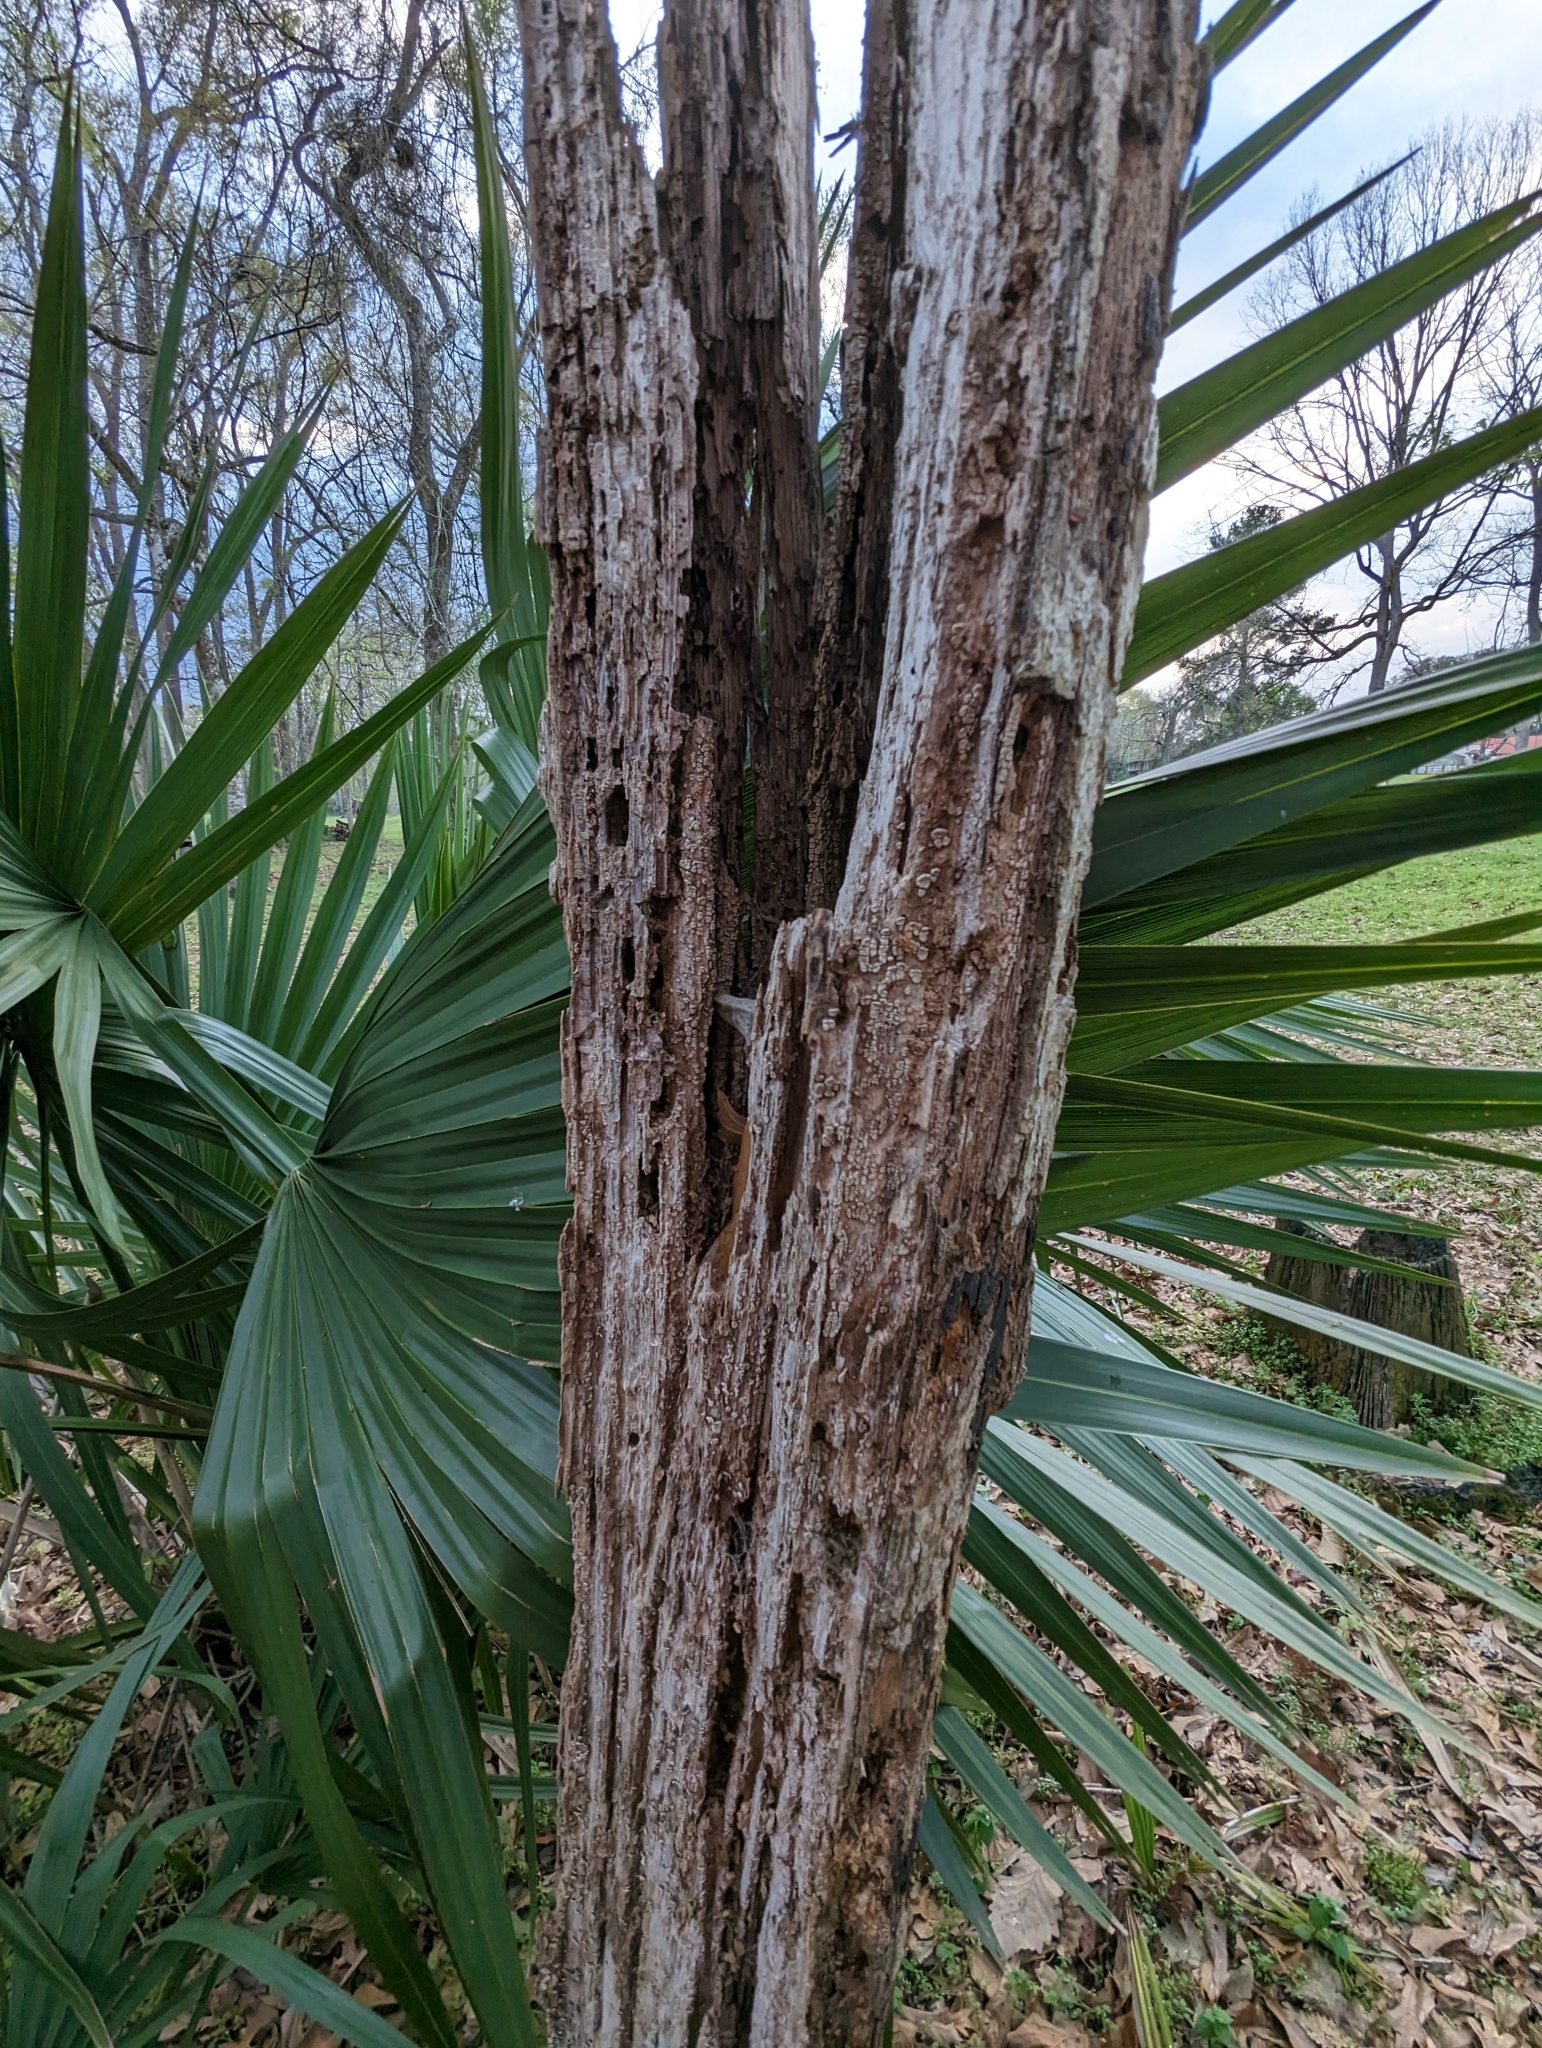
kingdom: Fungi
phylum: Basidiomycota
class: Agaricomycetes
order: Russulales
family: Stereaceae
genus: Xylobolus
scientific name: Xylobolus frustulatus
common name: Ceramic parchment
